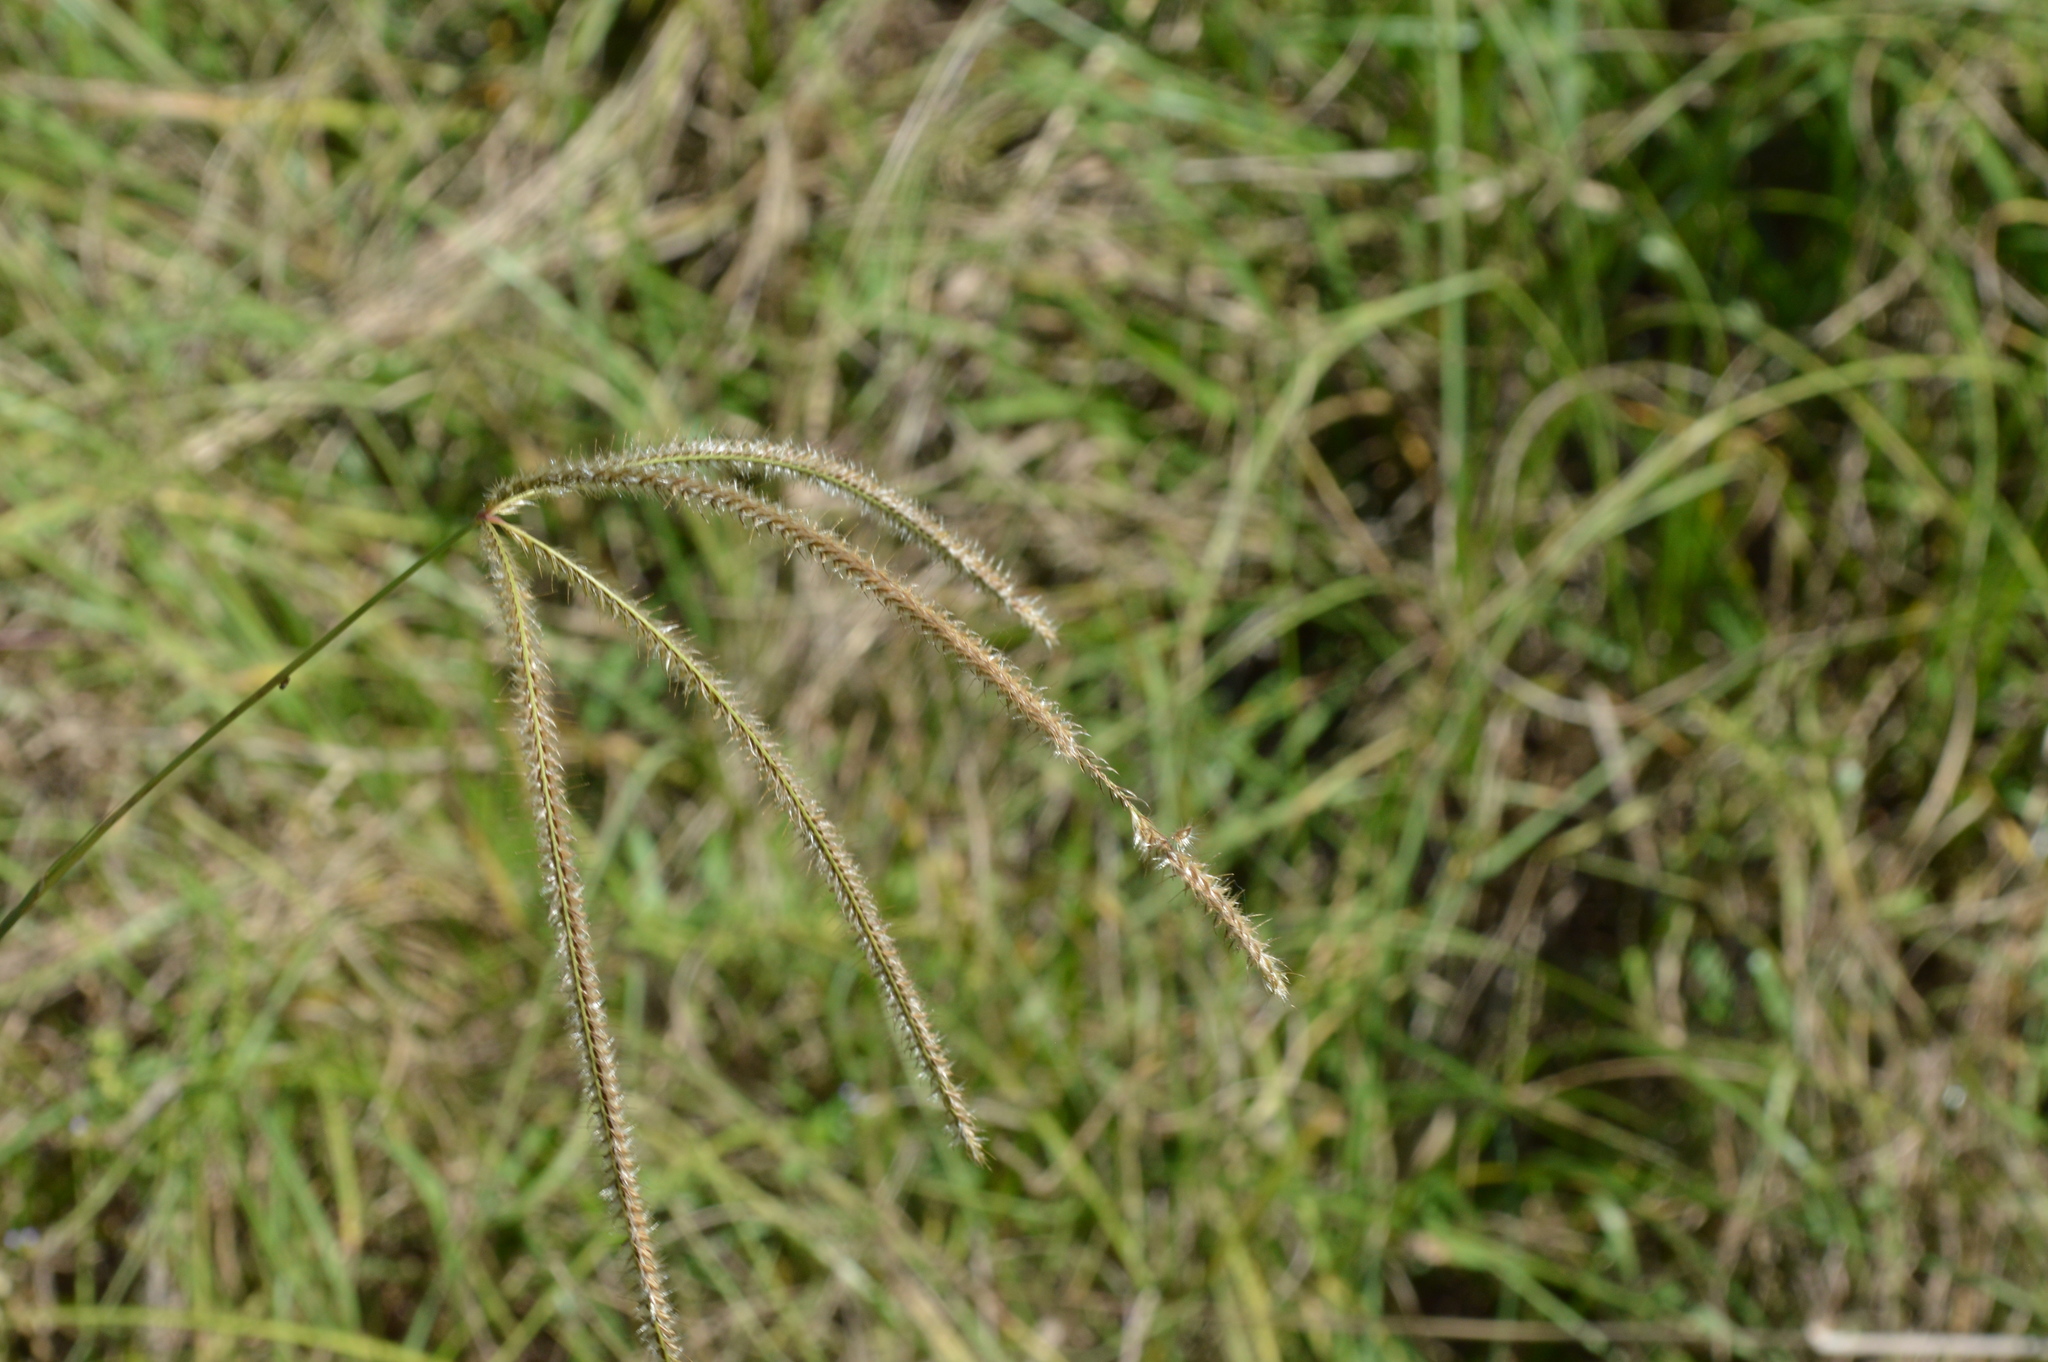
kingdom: Plantae
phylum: Tracheophyta
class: Liliopsida
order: Poales
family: Poaceae
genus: Stapfochloa
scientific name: Stapfochloa canterae
